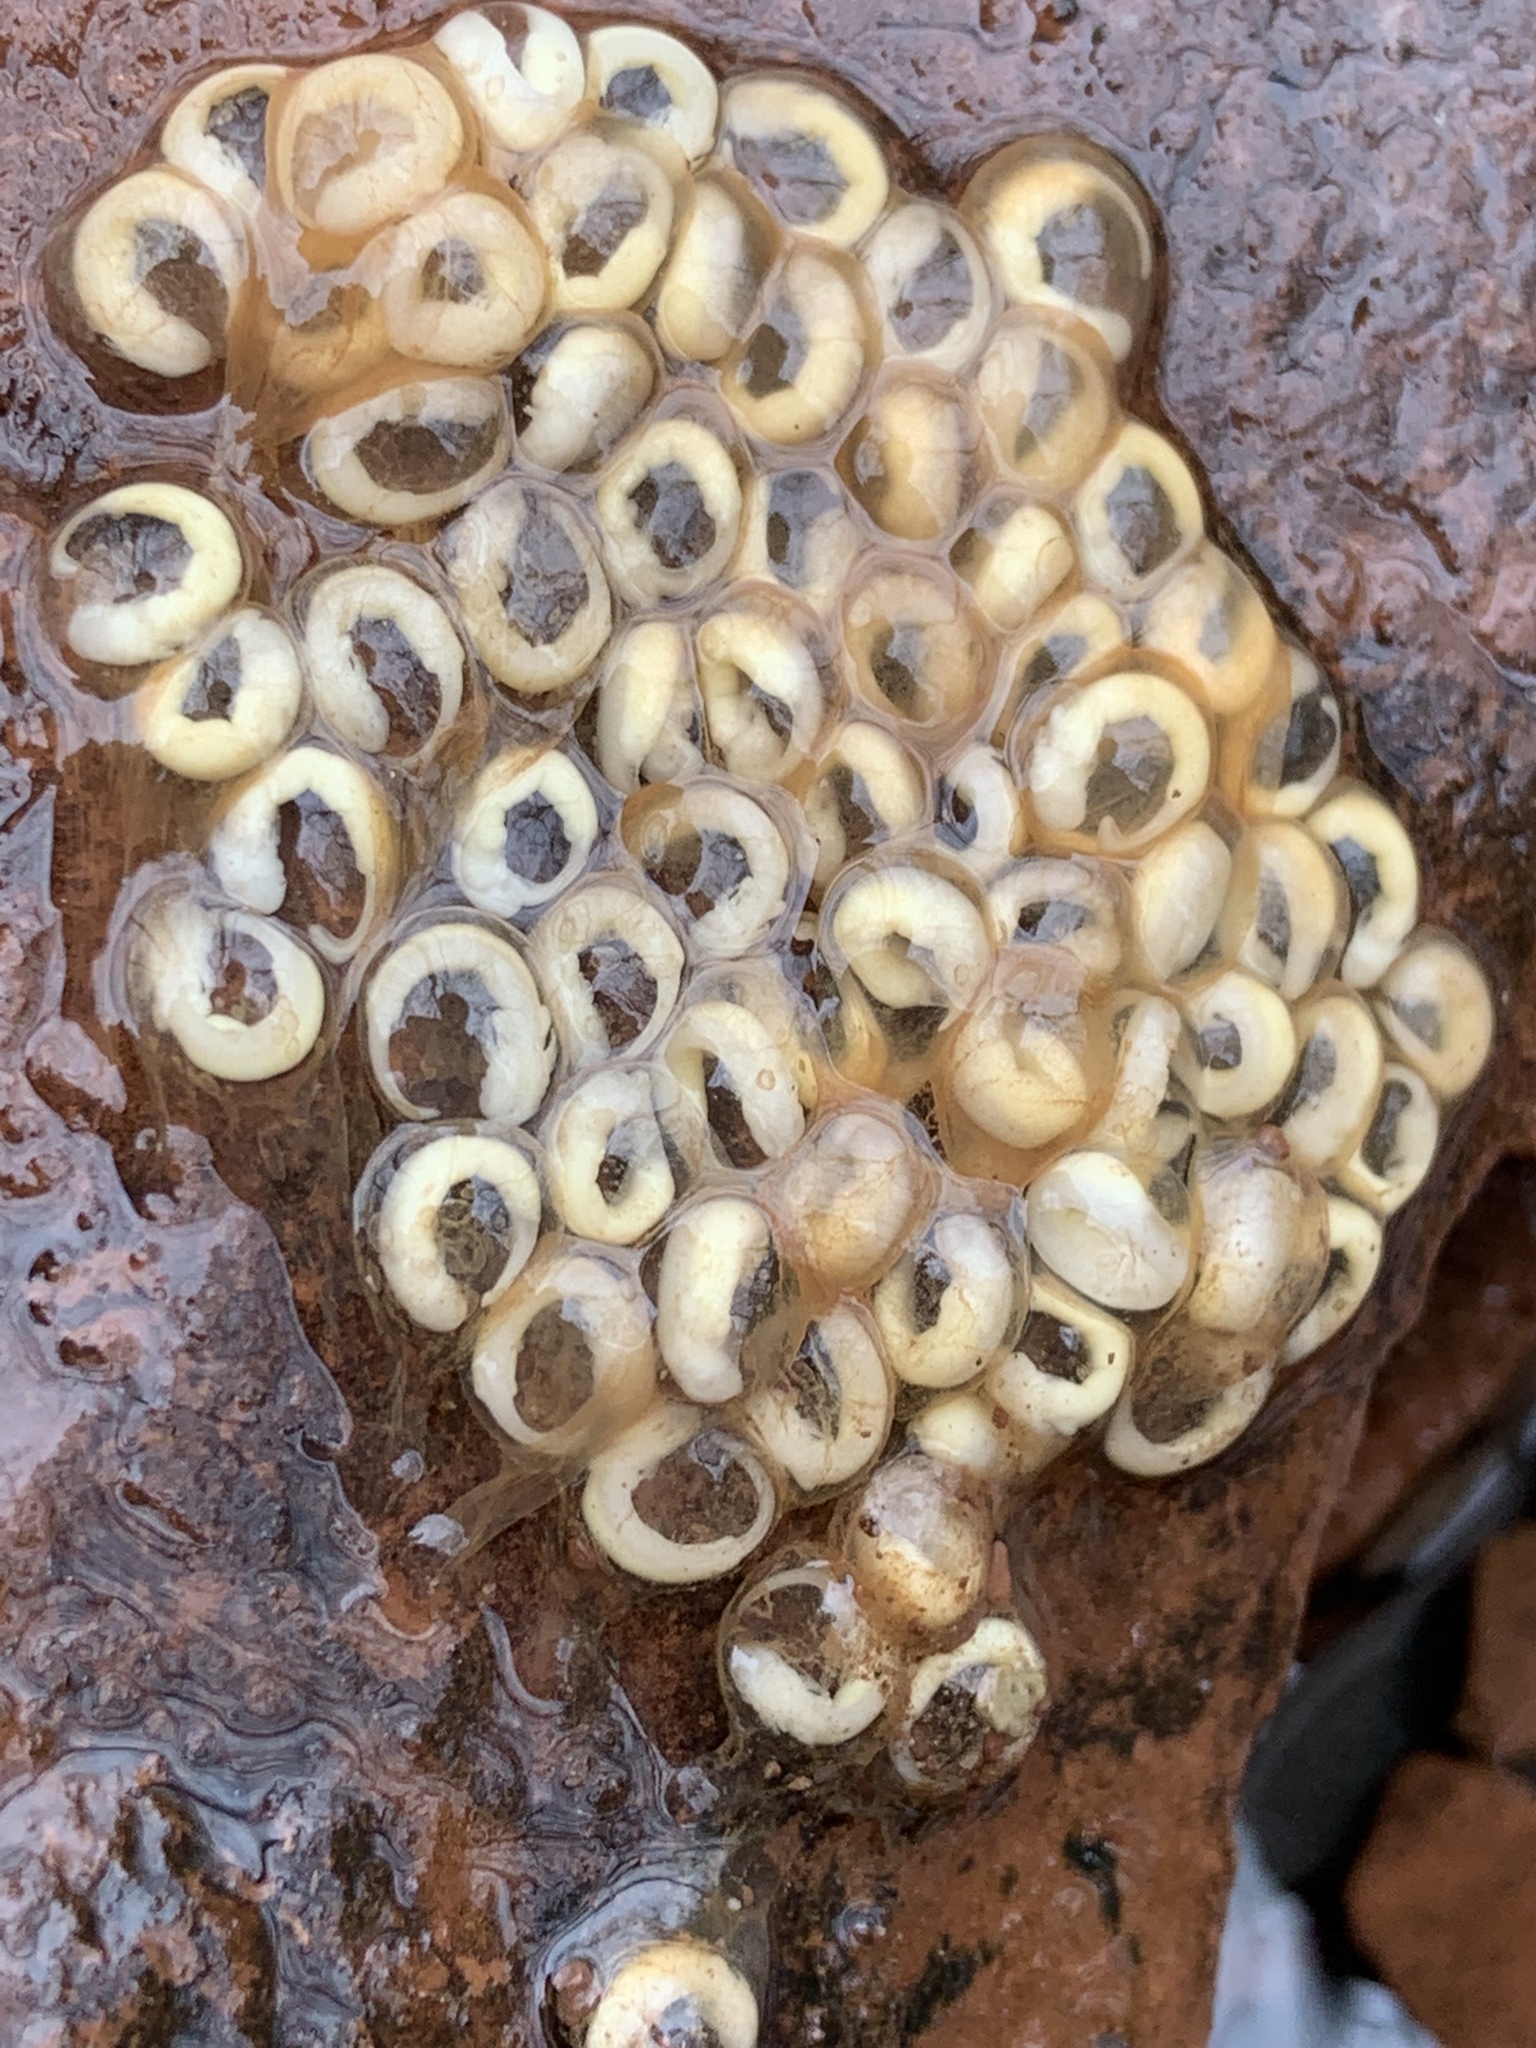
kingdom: Animalia
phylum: Chordata
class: Amphibia
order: Caudata
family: Plethodontidae
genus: Eurycea
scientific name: Eurycea bislineata
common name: Northern two-lined salamander
